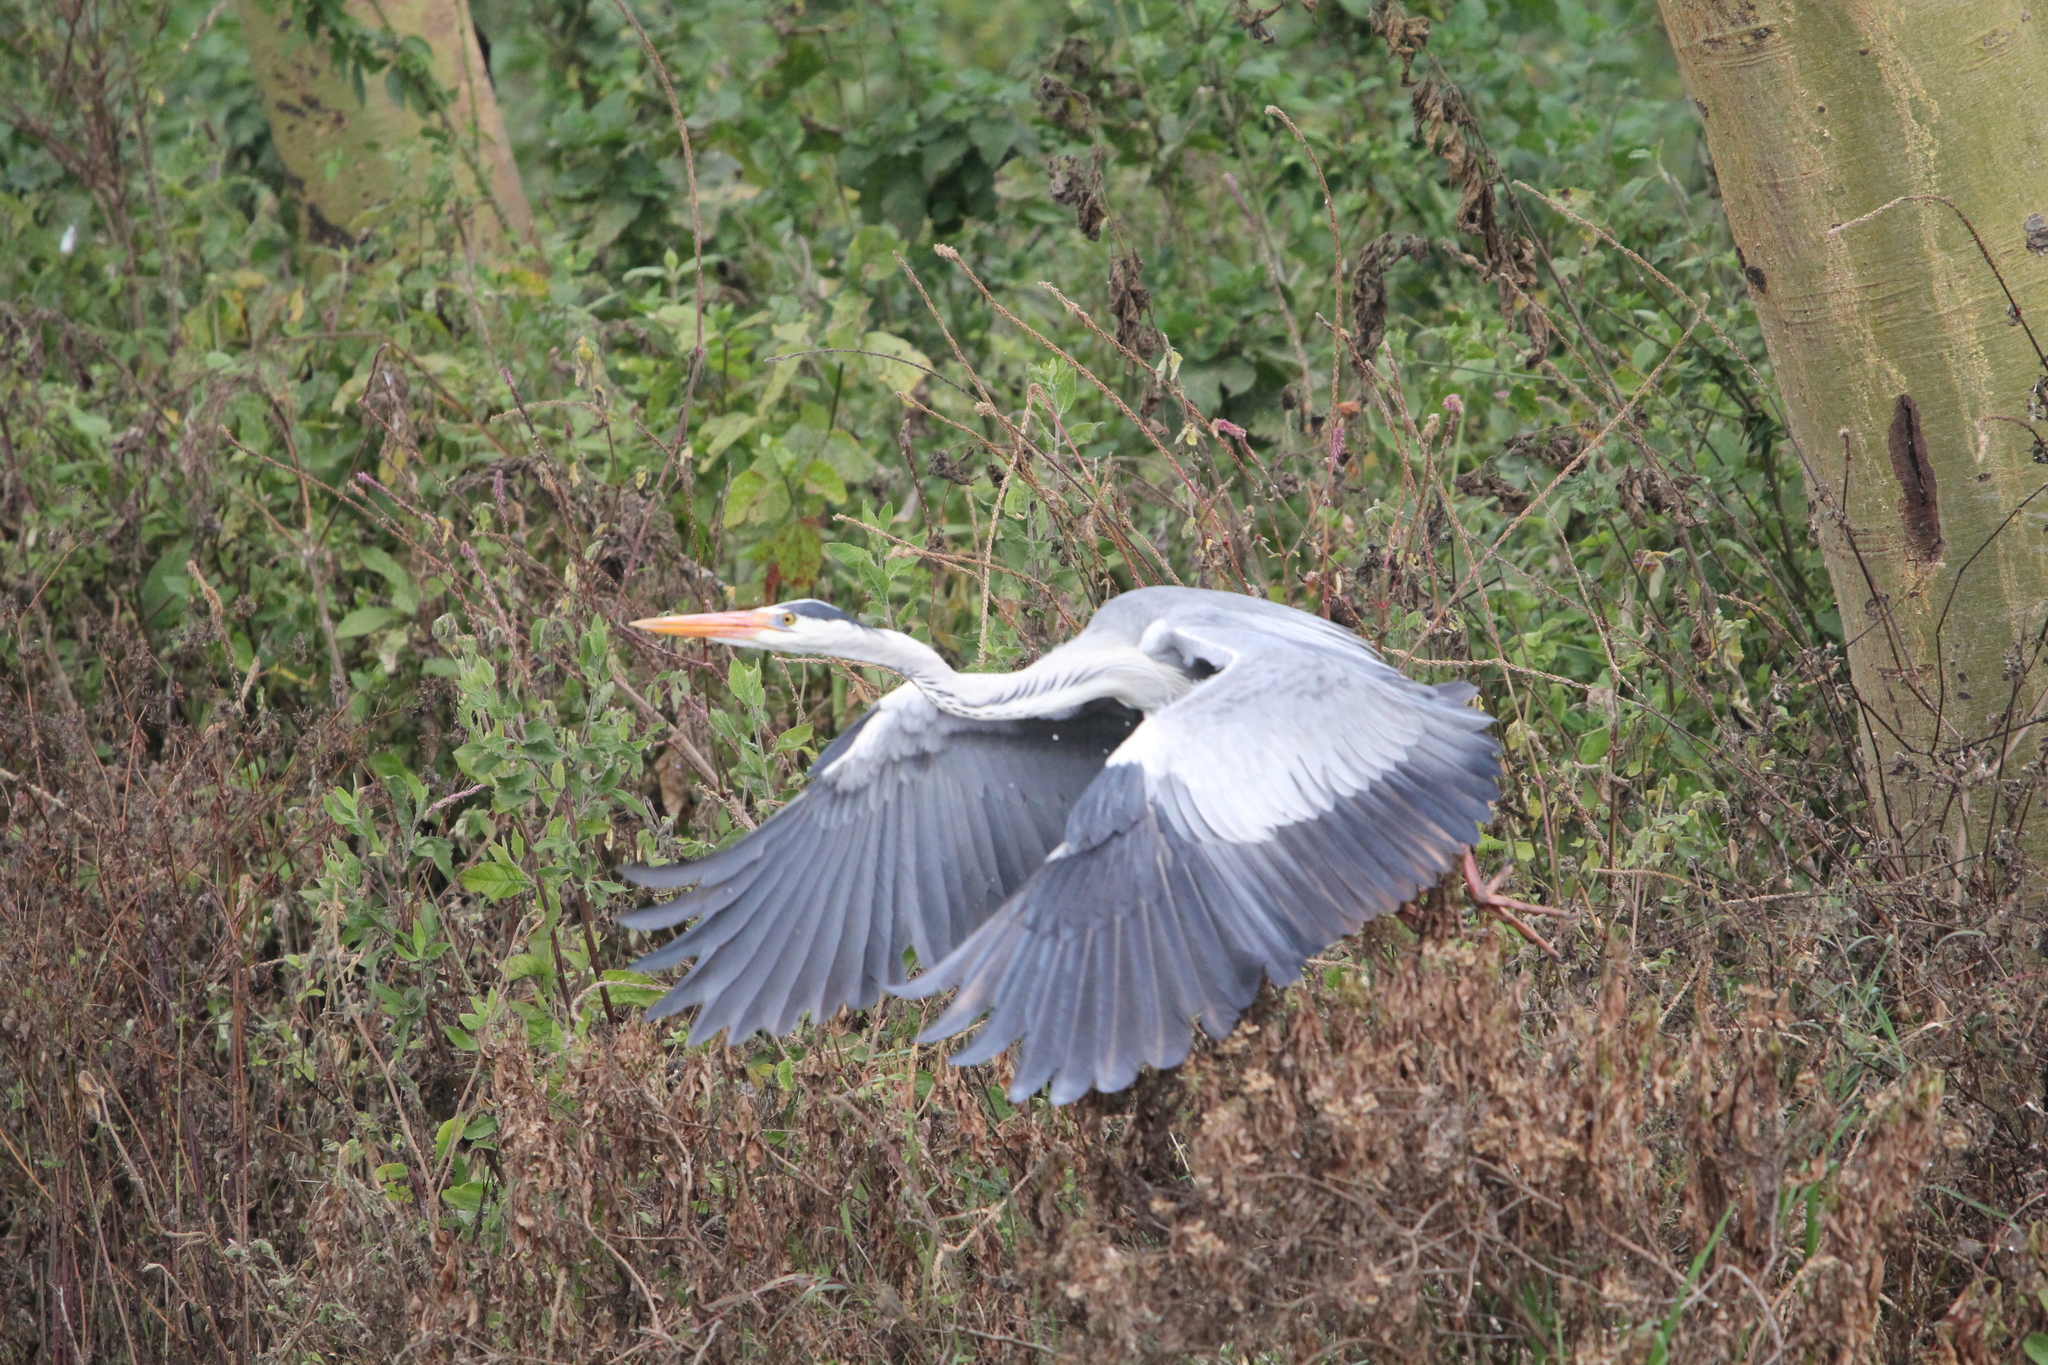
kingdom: Animalia
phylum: Chordata
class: Aves
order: Pelecaniformes
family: Ardeidae
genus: Ardea
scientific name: Ardea cinerea
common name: Grey heron
